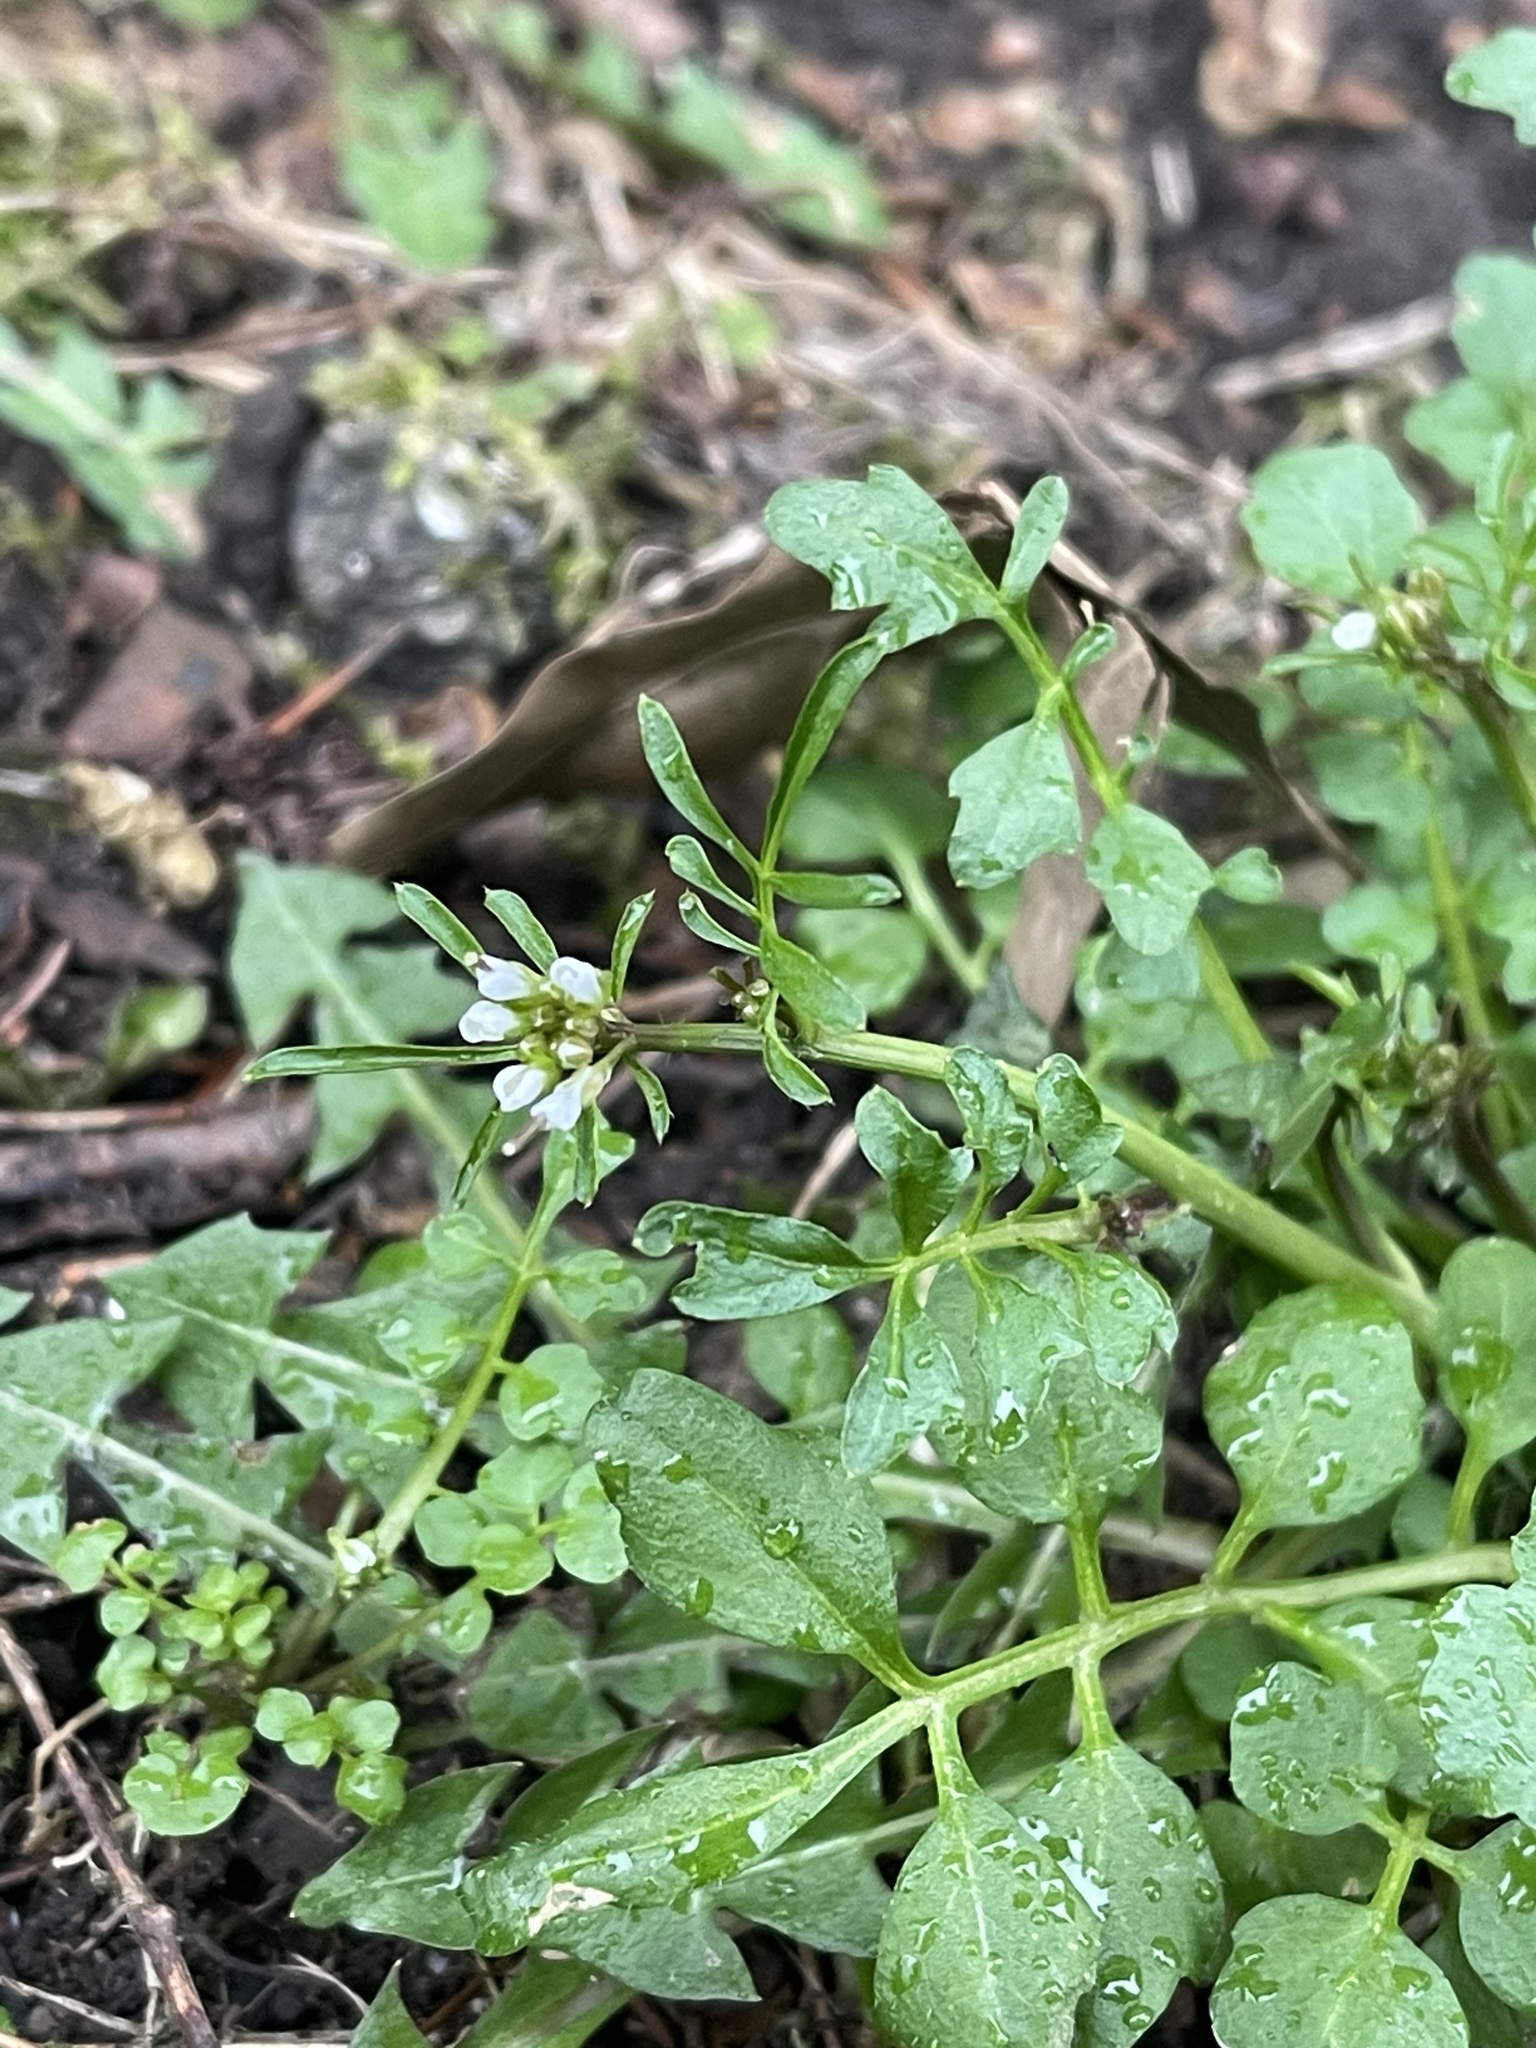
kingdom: Plantae
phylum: Tracheophyta
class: Magnoliopsida
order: Brassicales
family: Brassicaceae
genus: Cardamine
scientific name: Cardamine hirsuta
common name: Hairy bittercress
